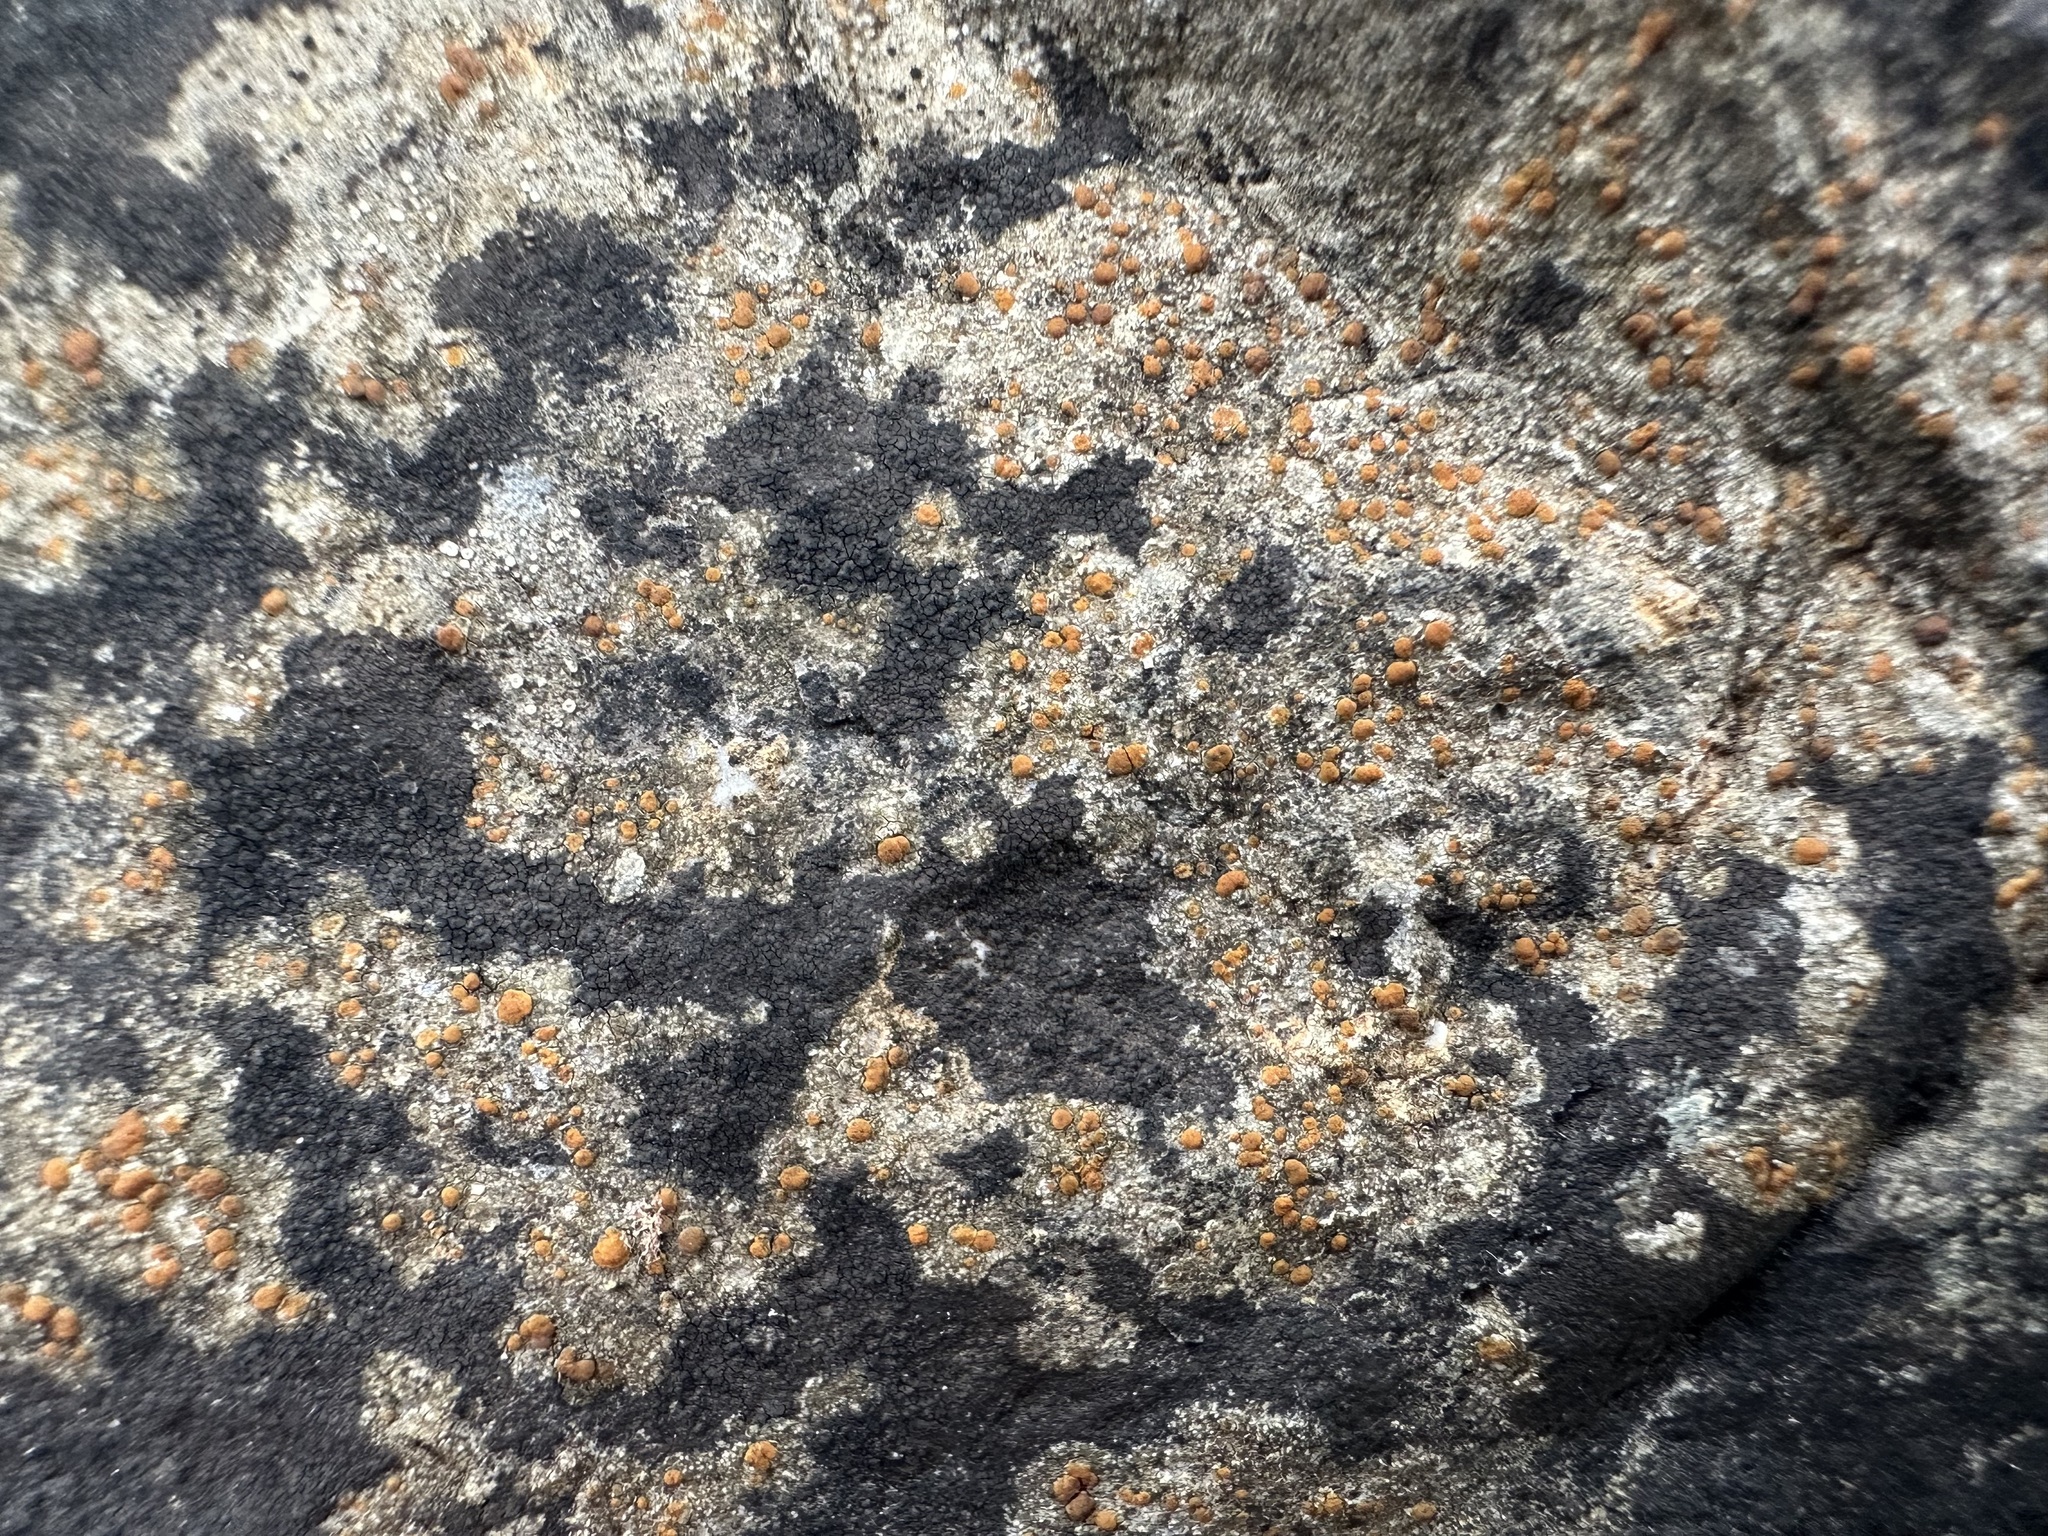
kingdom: Fungi
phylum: Ascomycota
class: Lecanoromycetes
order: Lecanorales
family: Psoraceae
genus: Protoblastenia
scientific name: Protoblastenia rupestris
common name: Chewing gum lichen
